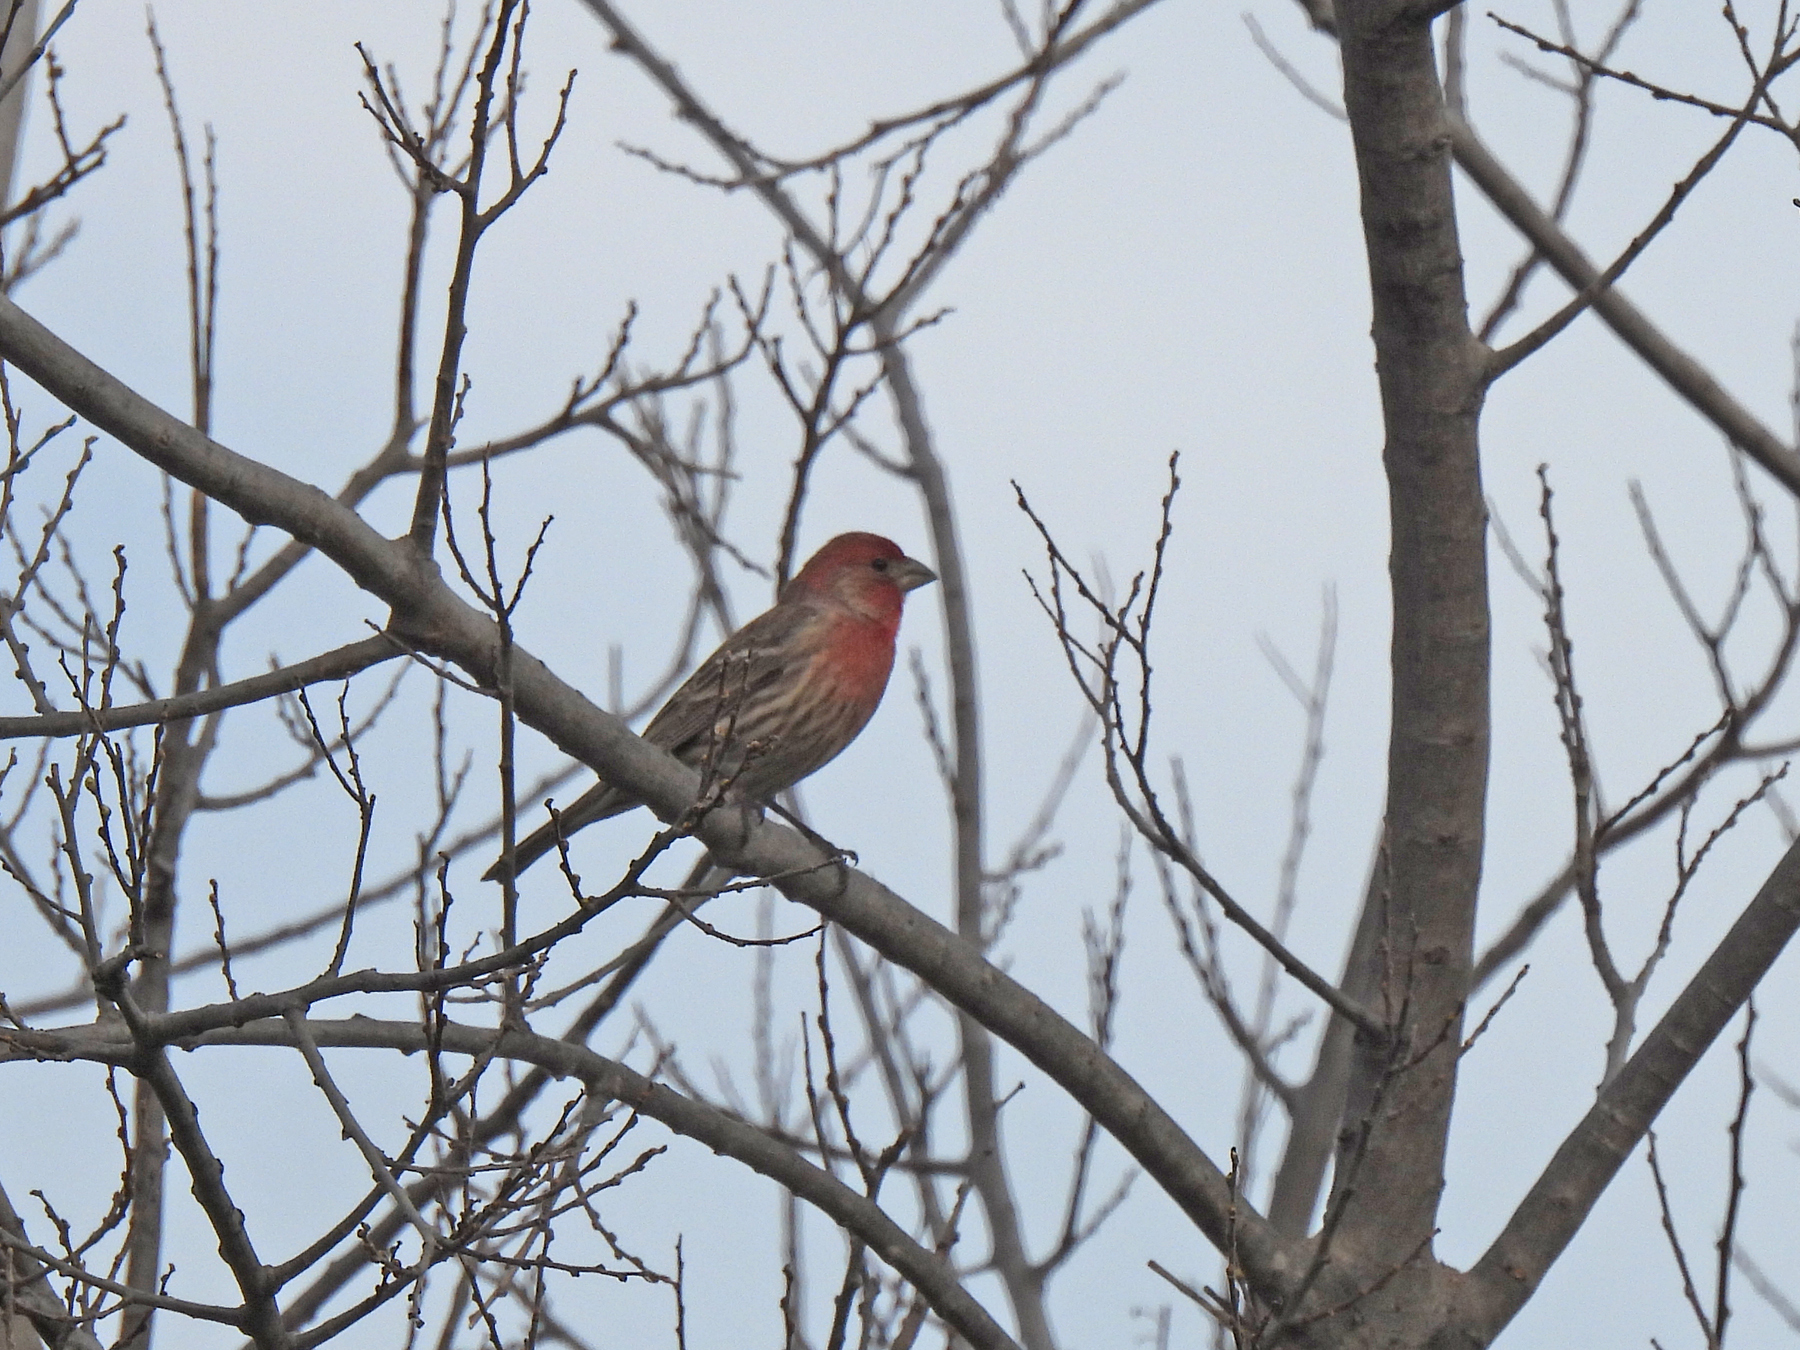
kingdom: Animalia
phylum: Chordata
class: Aves
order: Passeriformes
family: Fringillidae
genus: Haemorhous
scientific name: Haemorhous mexicanus
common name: House finch
